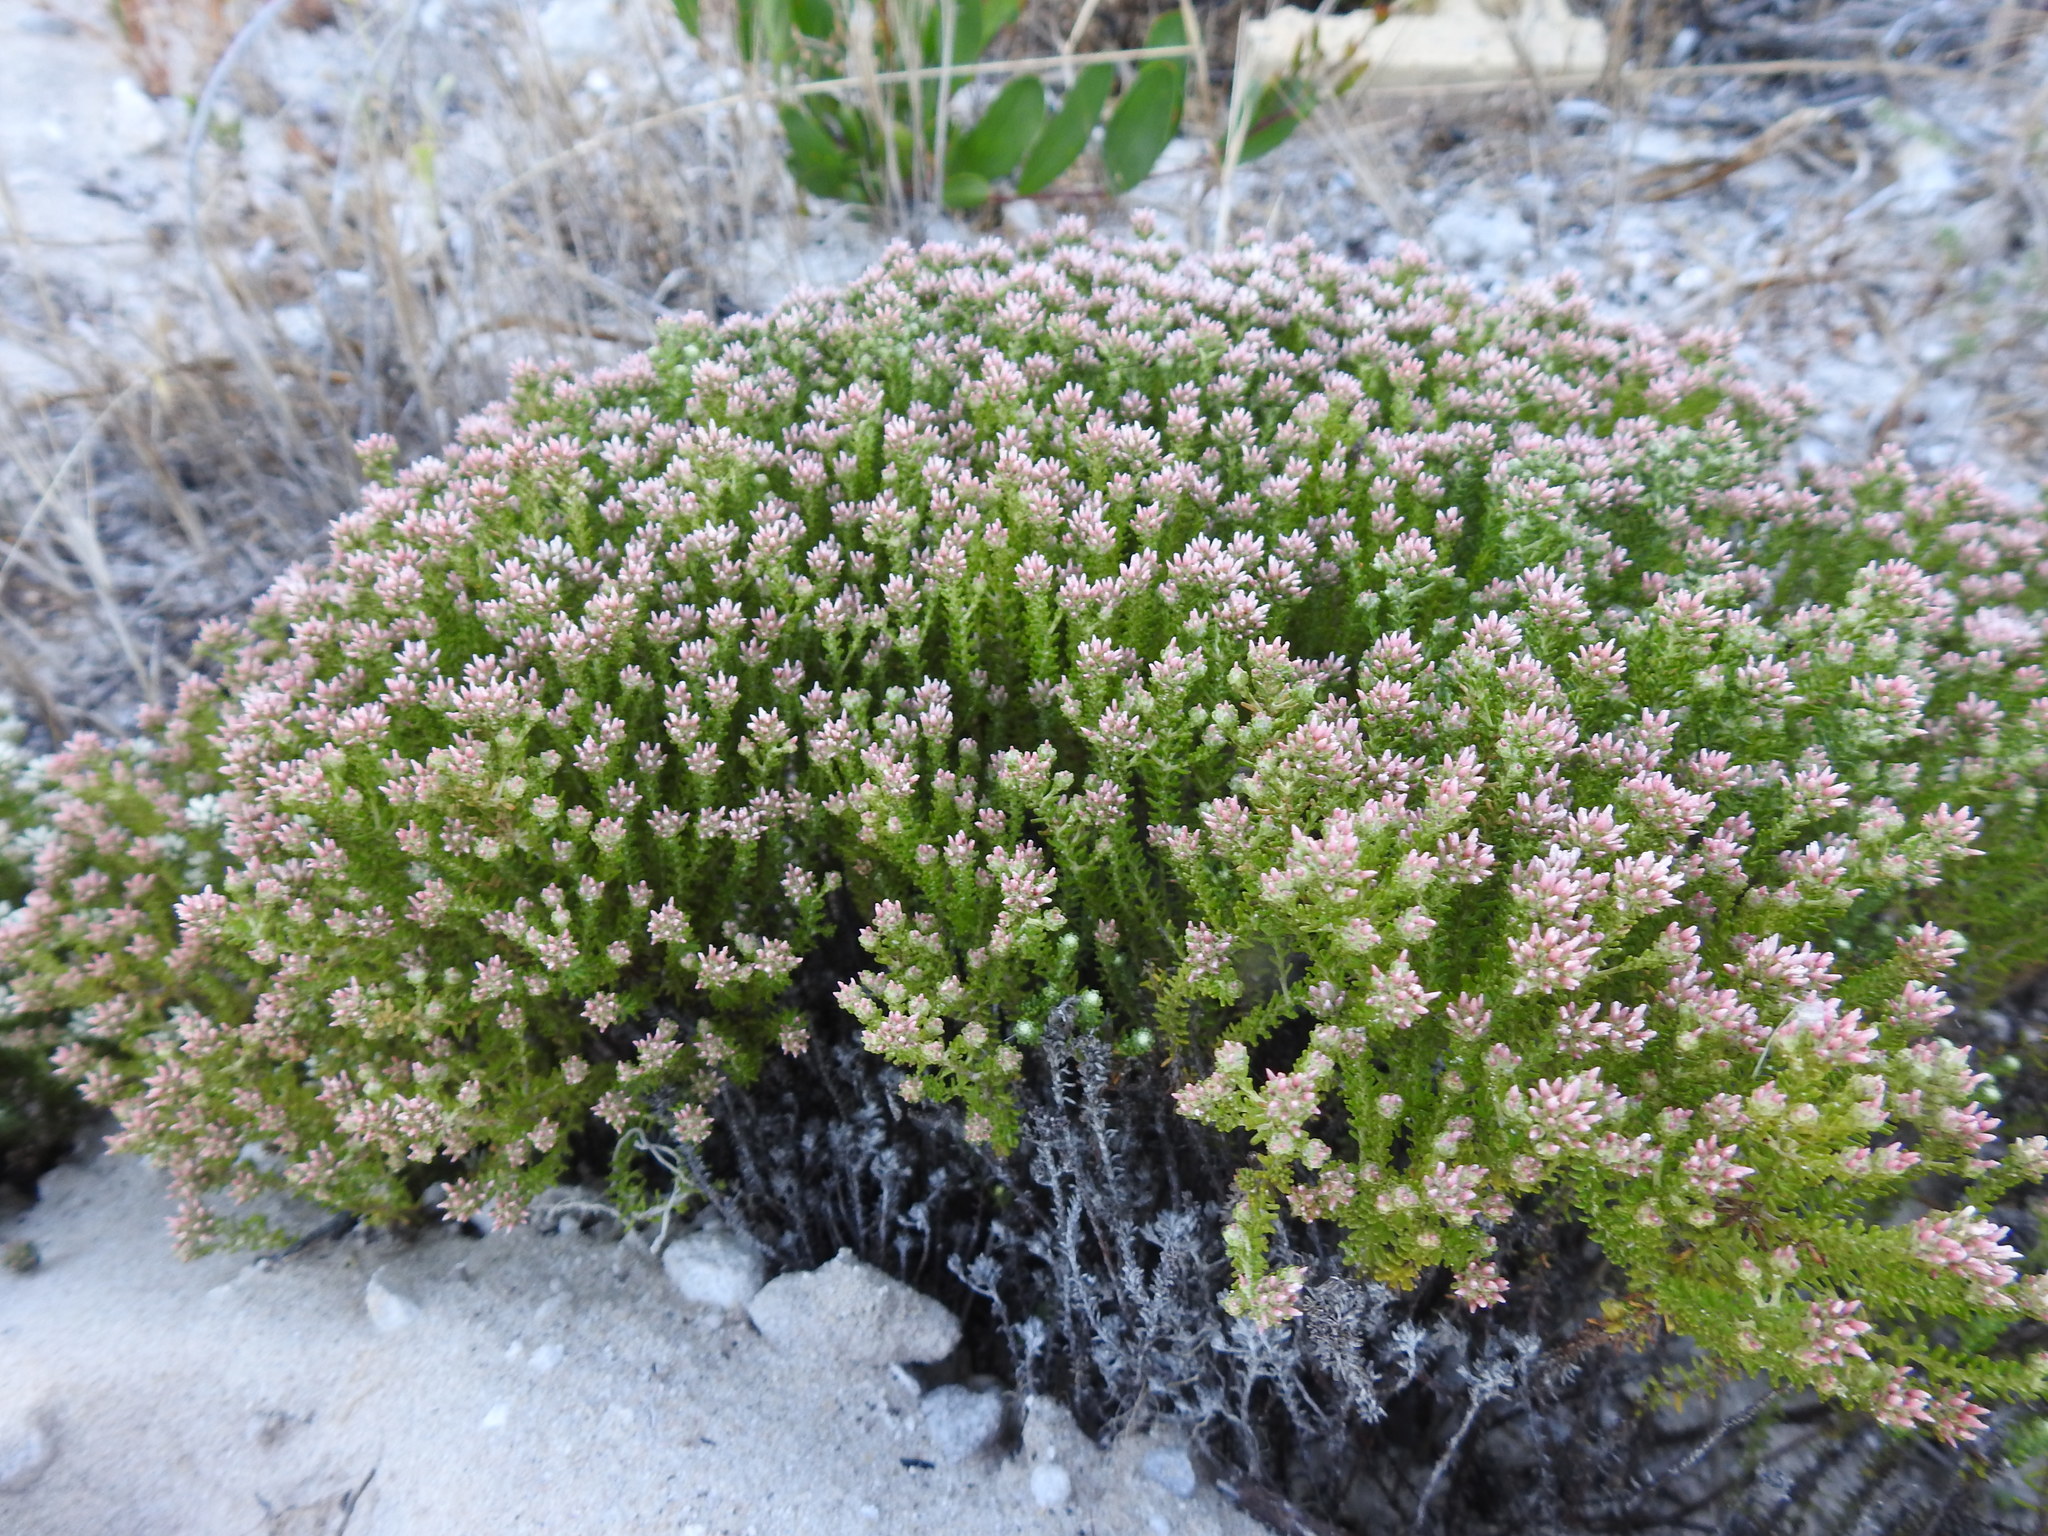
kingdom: Plantae
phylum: Tracheophyta
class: Magnoliopsida
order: Asterales
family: Asteraceae
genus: Helichrysum
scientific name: Helichrysum niveum
